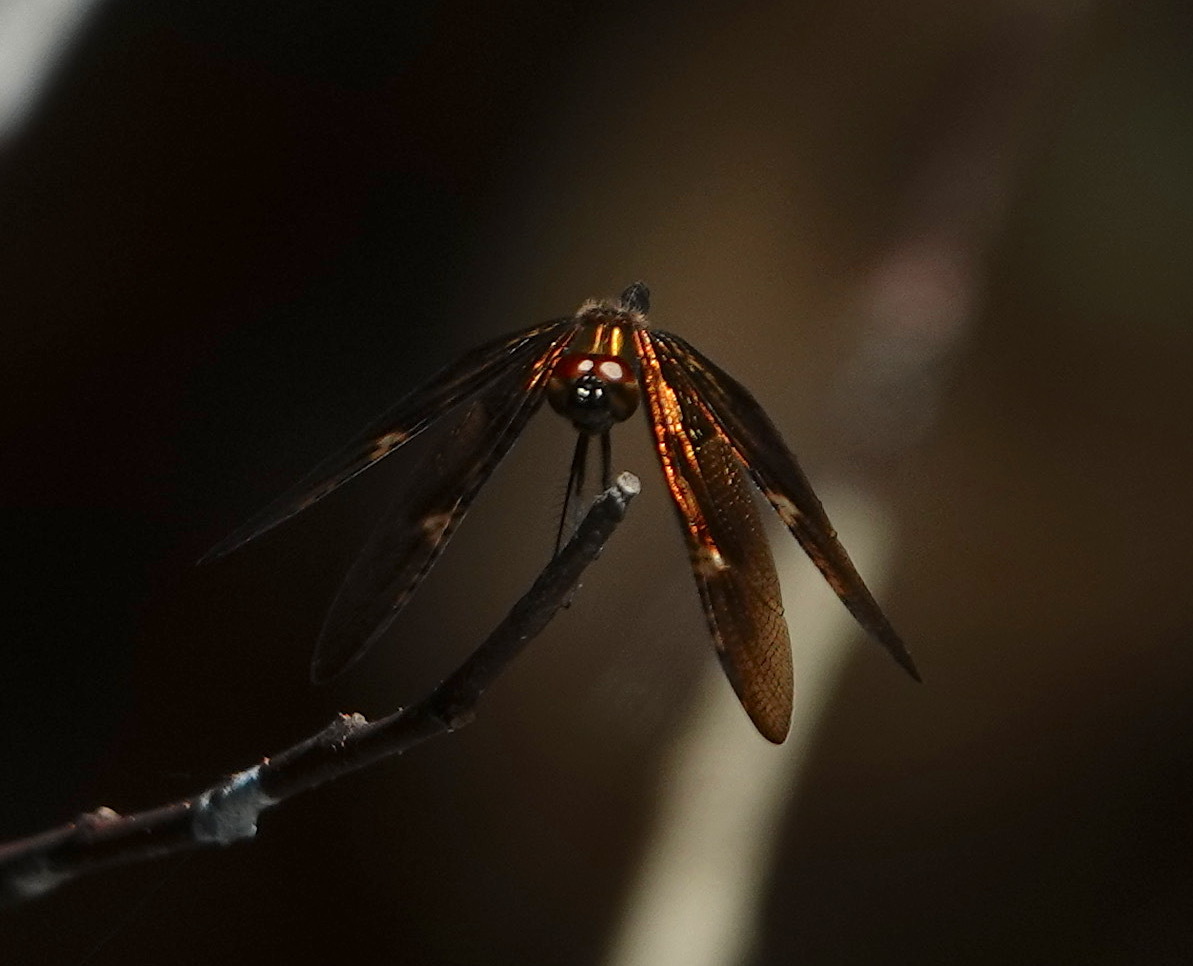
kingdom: Animalia
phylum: Arthropoda
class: Insecta
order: Odonata
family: Libellulidae
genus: Rhyothemis
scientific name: Rhyothemis obsolescens
